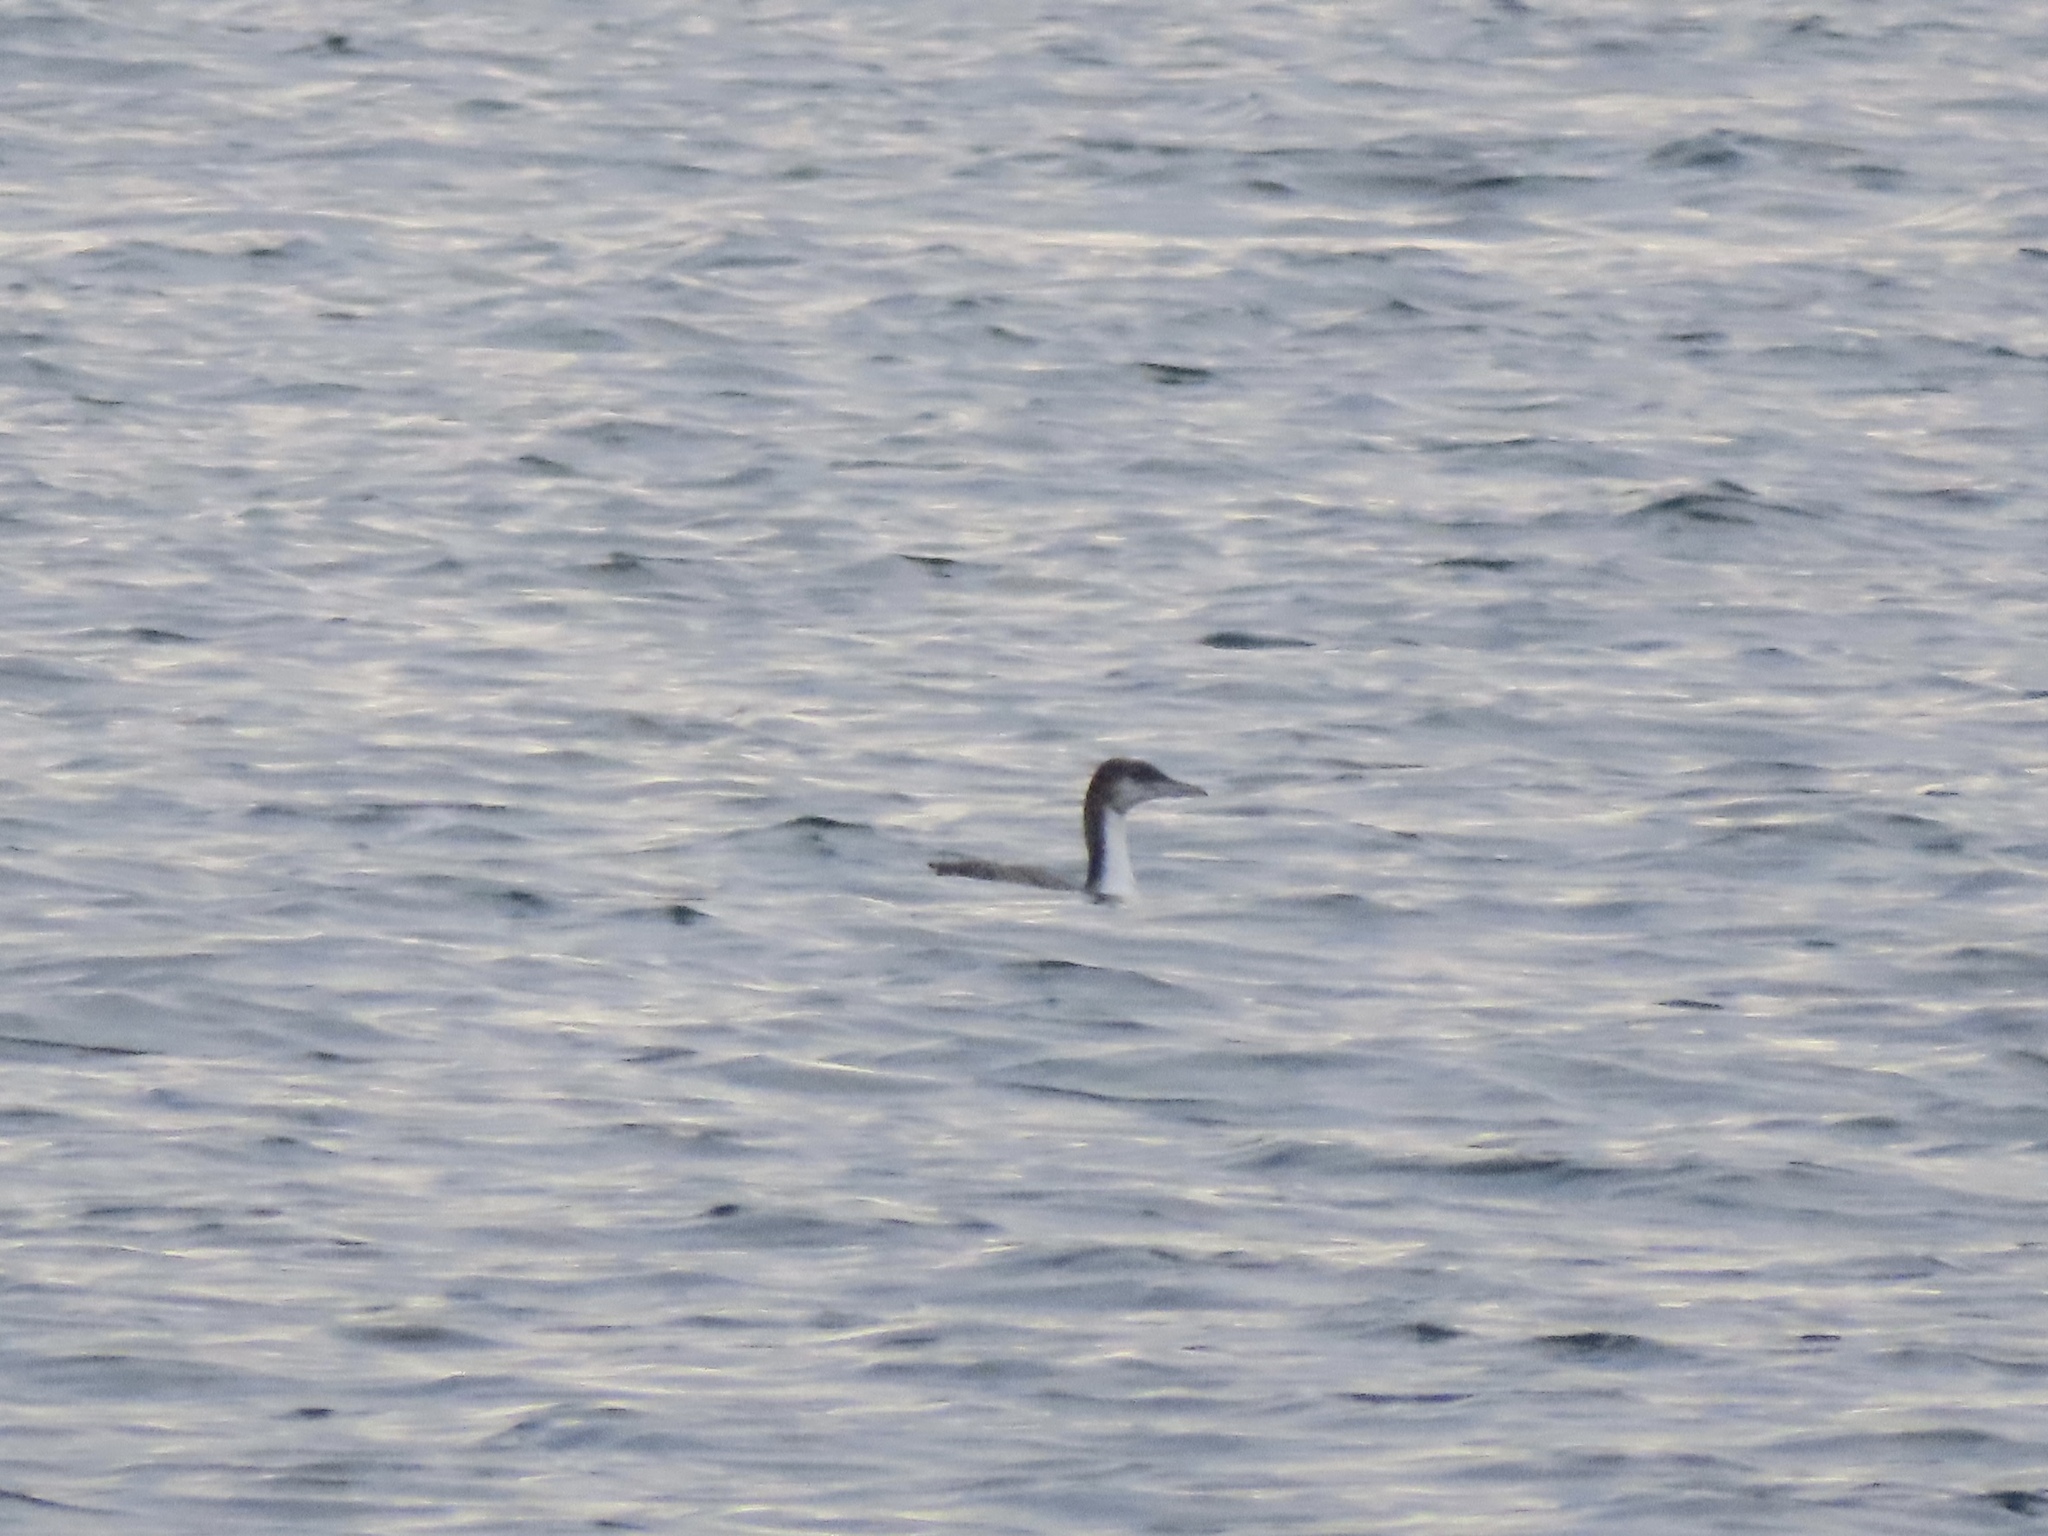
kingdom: Animalia
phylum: Chordata
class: Aves
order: Gaviiformes
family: Gaviidae
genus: Gavia
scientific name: Gavia pacifica
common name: Pacific loon
